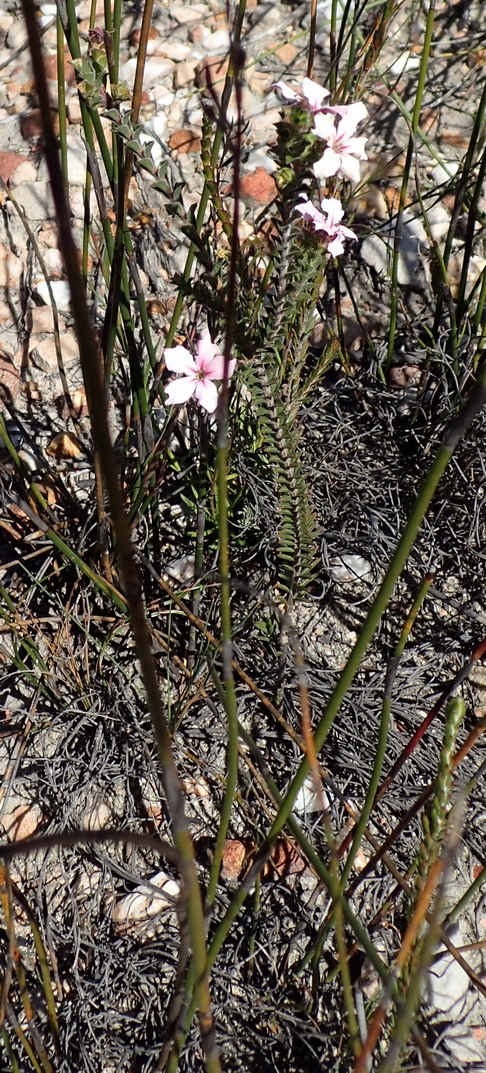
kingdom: Plantae
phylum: Tracheophyta
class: Magnoliopsida
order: Sapindales
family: Rutaceae
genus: Acmadenia
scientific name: Acmadenia tetragona
